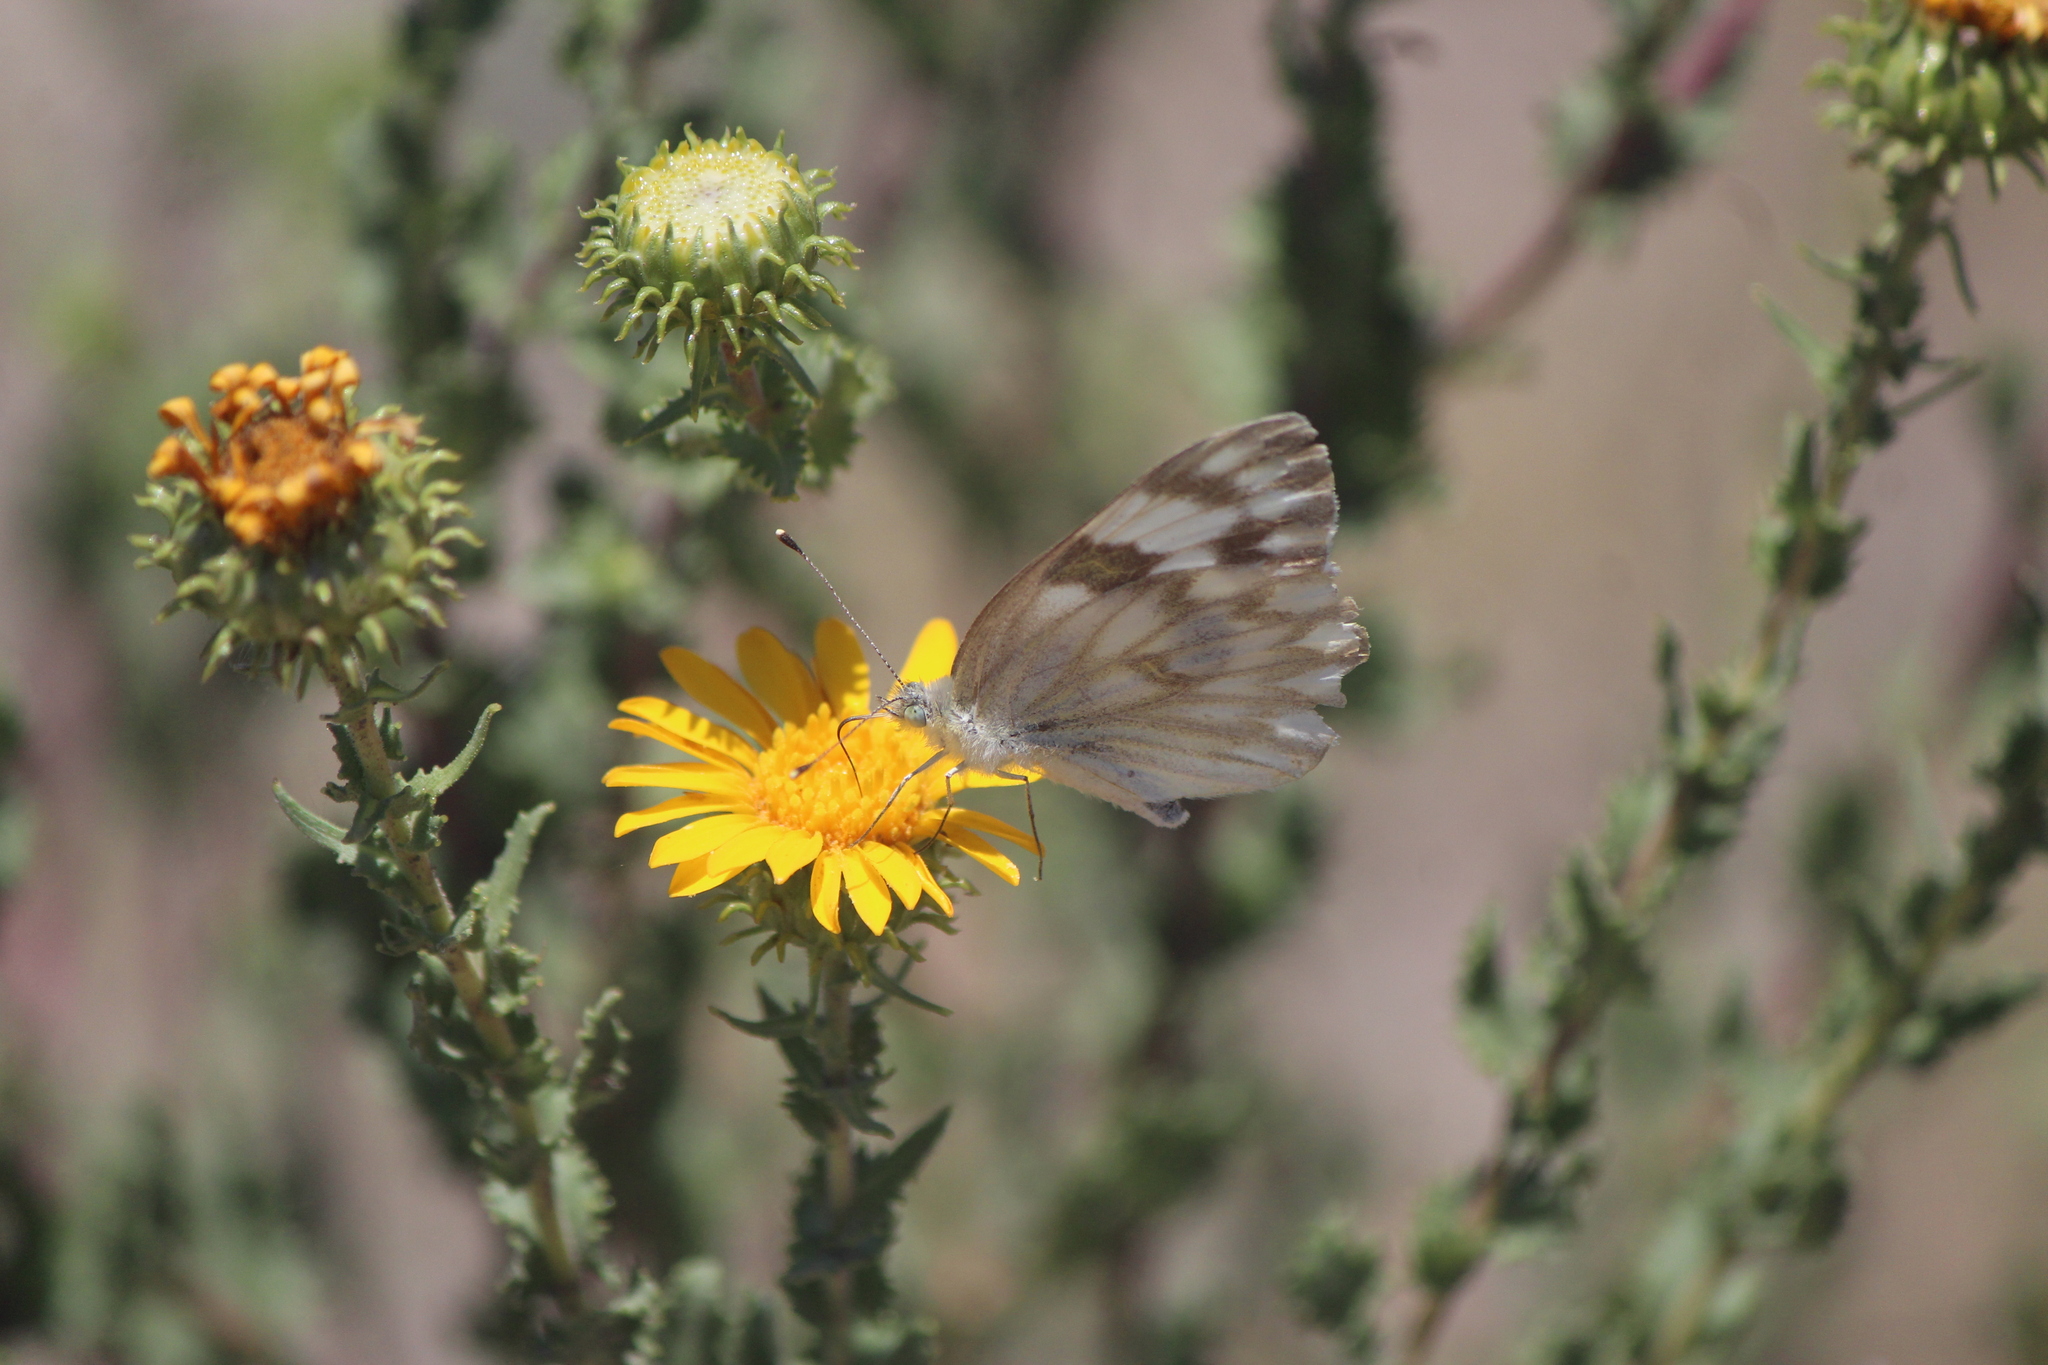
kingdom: Animalia
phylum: Arthropoda
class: Insecta
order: Lepidoptera
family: Pieridae
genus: Pontia
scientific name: Pontia protodice
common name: Checkered white
